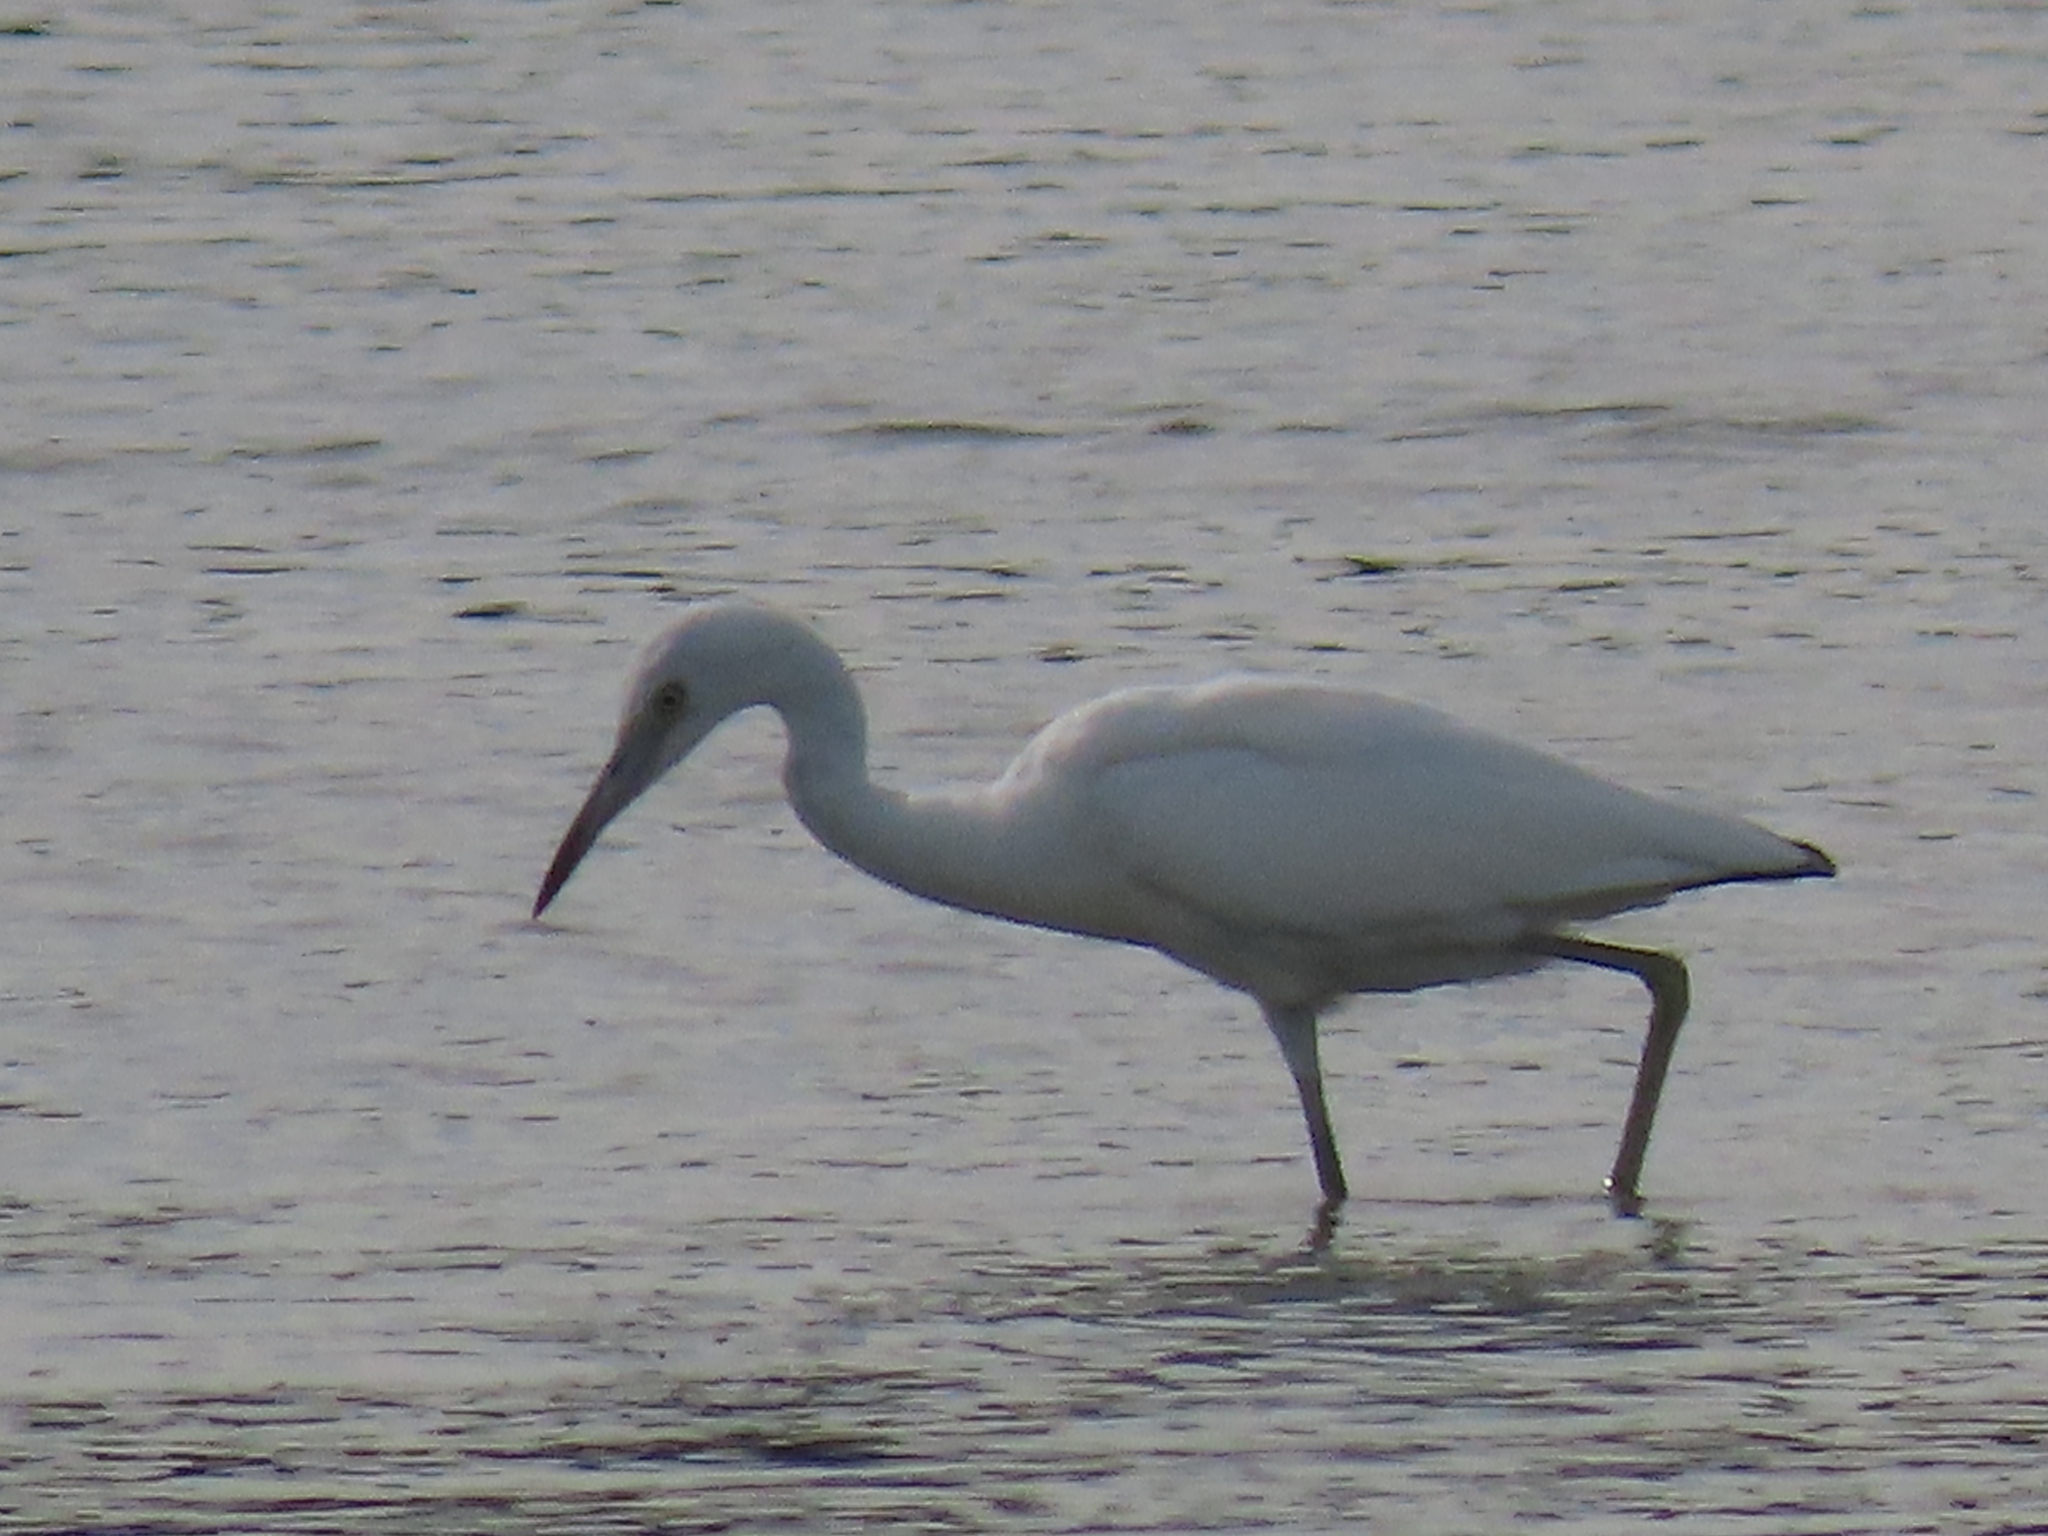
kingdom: Animalia
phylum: Chordata
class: Aves
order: Pelecaniformes
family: Ardeidae
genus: Egretta
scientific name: Egretta caerulea
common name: Little blue heron
